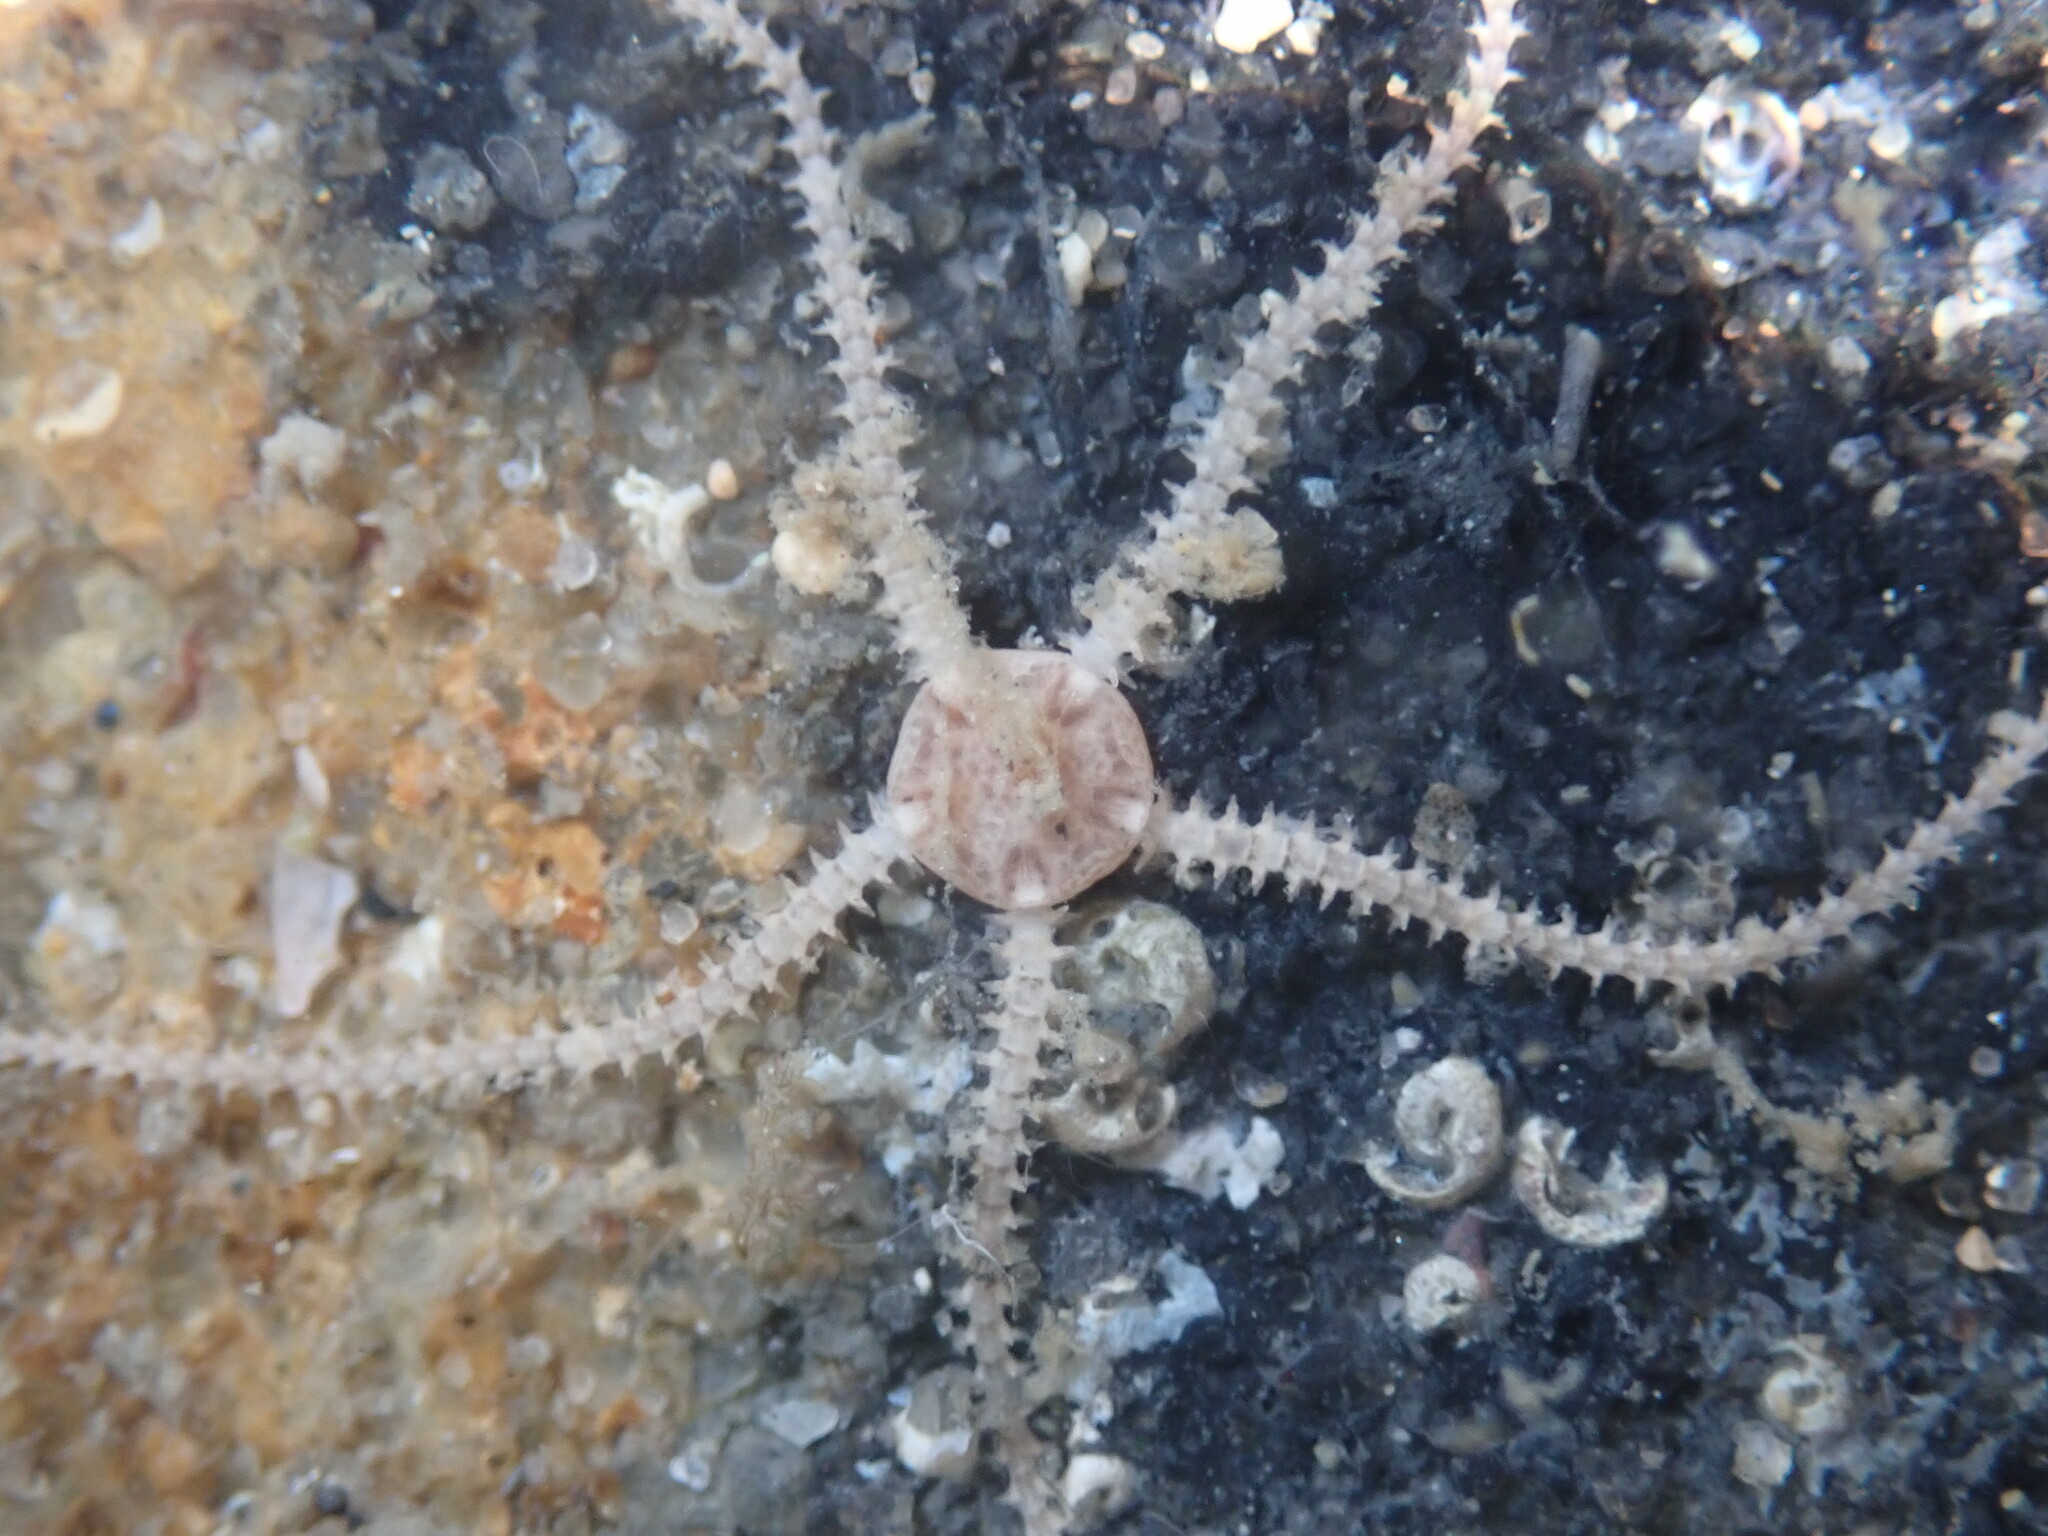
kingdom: Animalia
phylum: Echinodermata
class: Ophiuroidea
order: Amphilepidida
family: Amphiuridae
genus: Amphipholis
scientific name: Amphipholis squamata
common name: Brooding snake star
